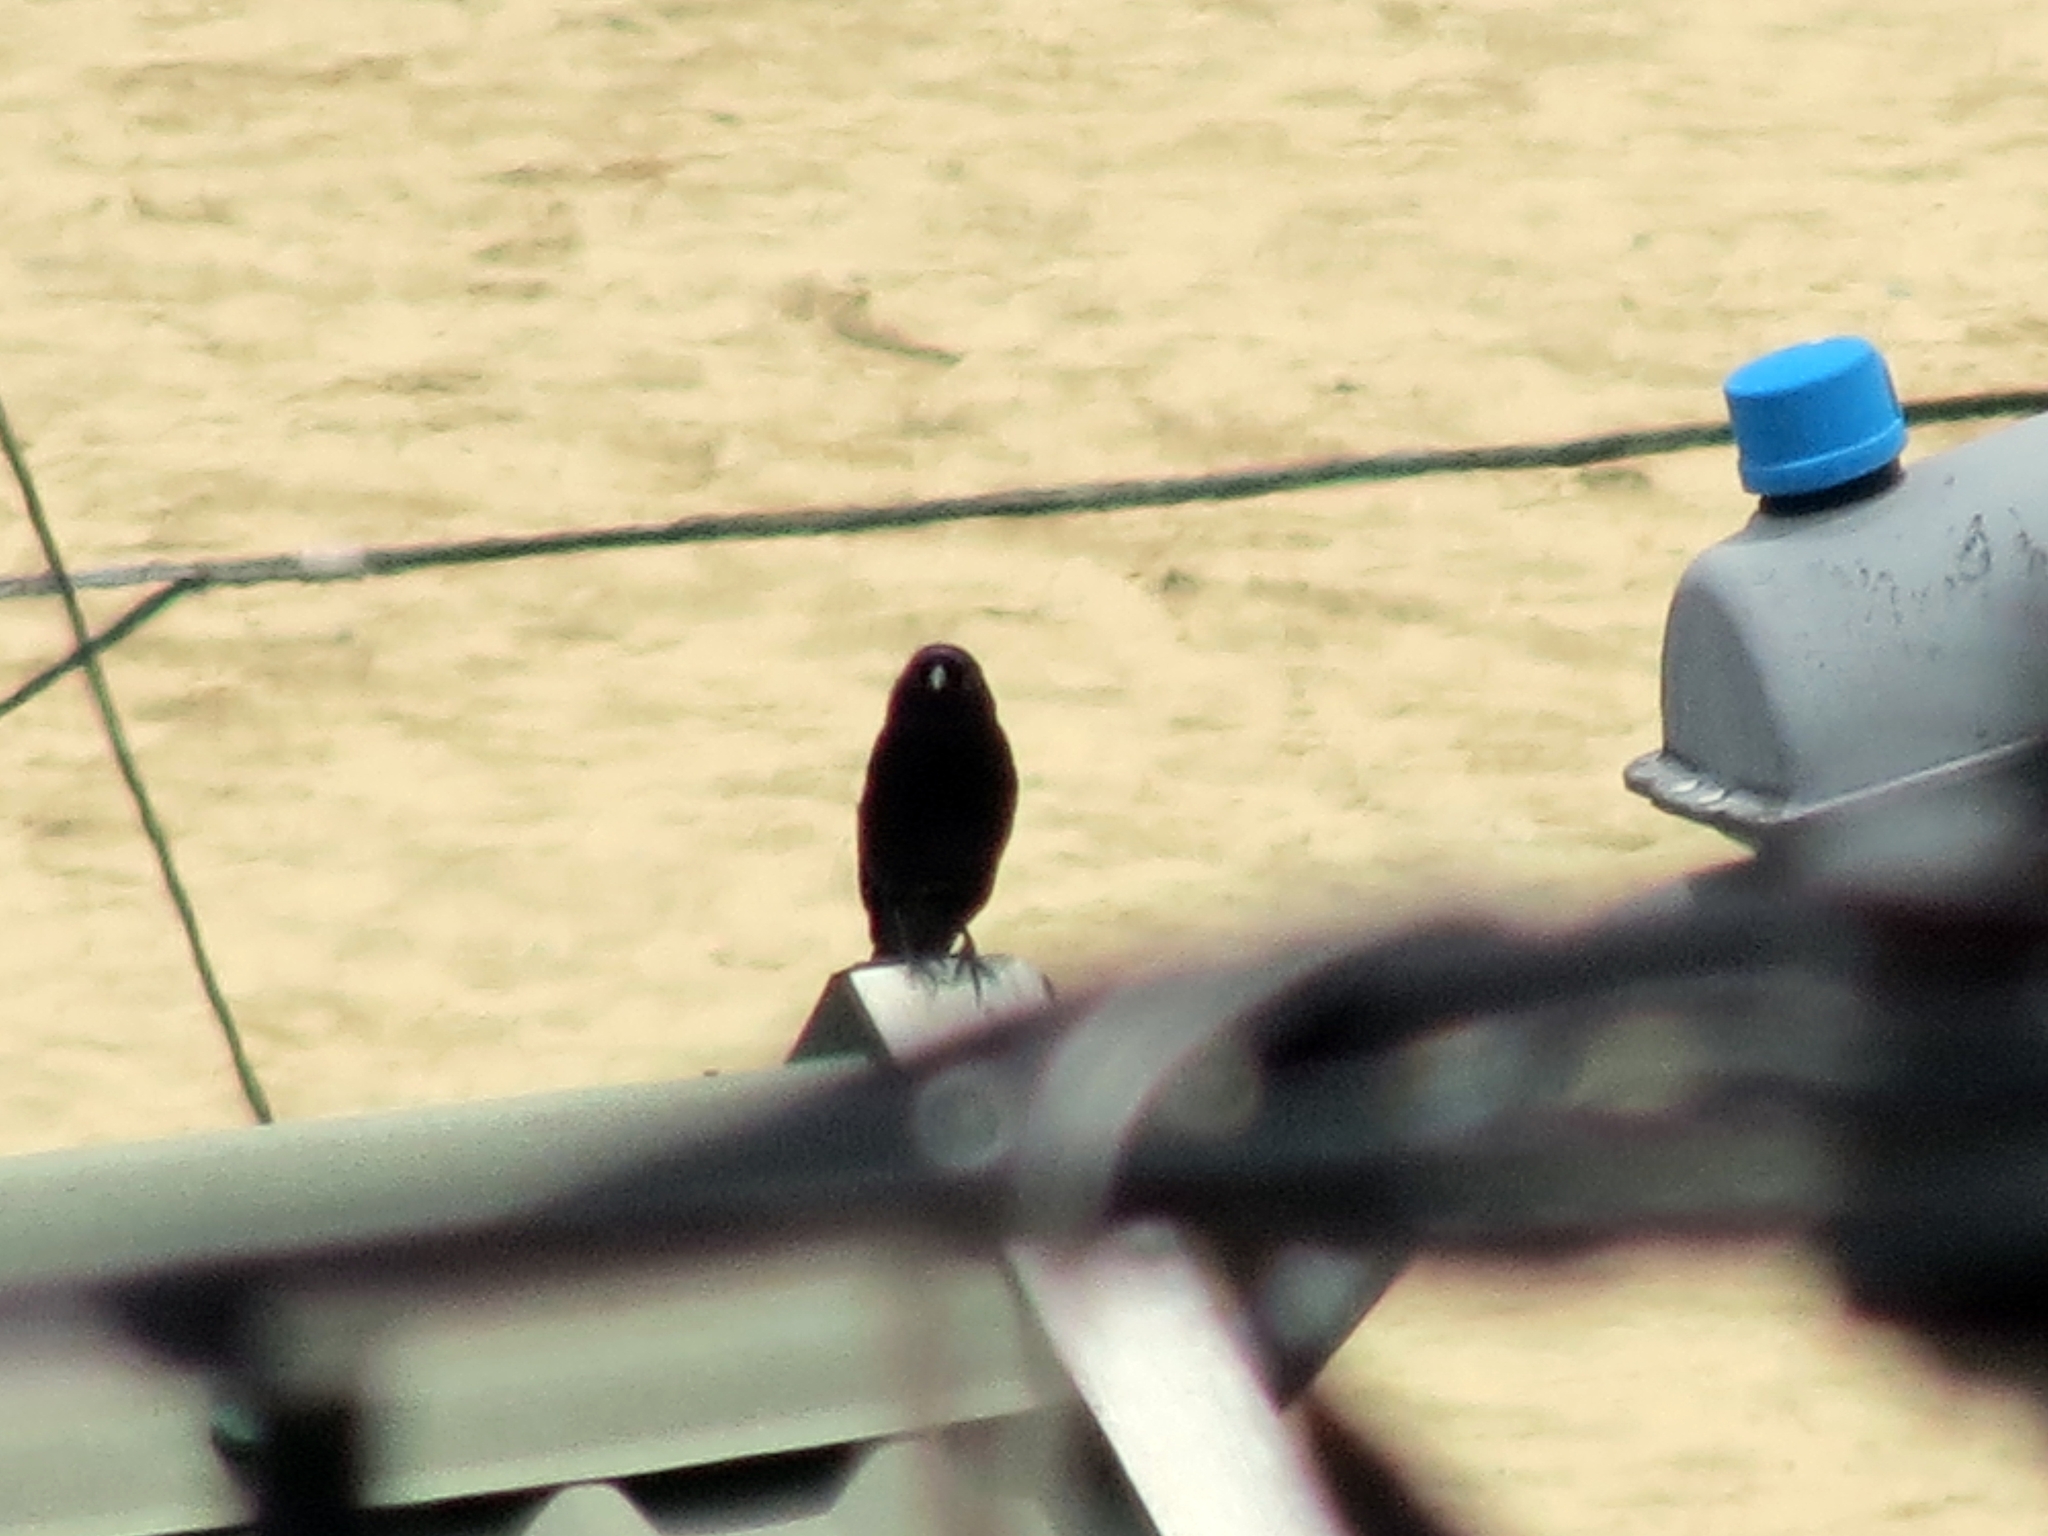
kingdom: Animalia
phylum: Chordata
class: Aves
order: Passeriformes
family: Icteridae
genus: Molothrus
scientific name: Molothrus bonariensis
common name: Shiny cowbird
